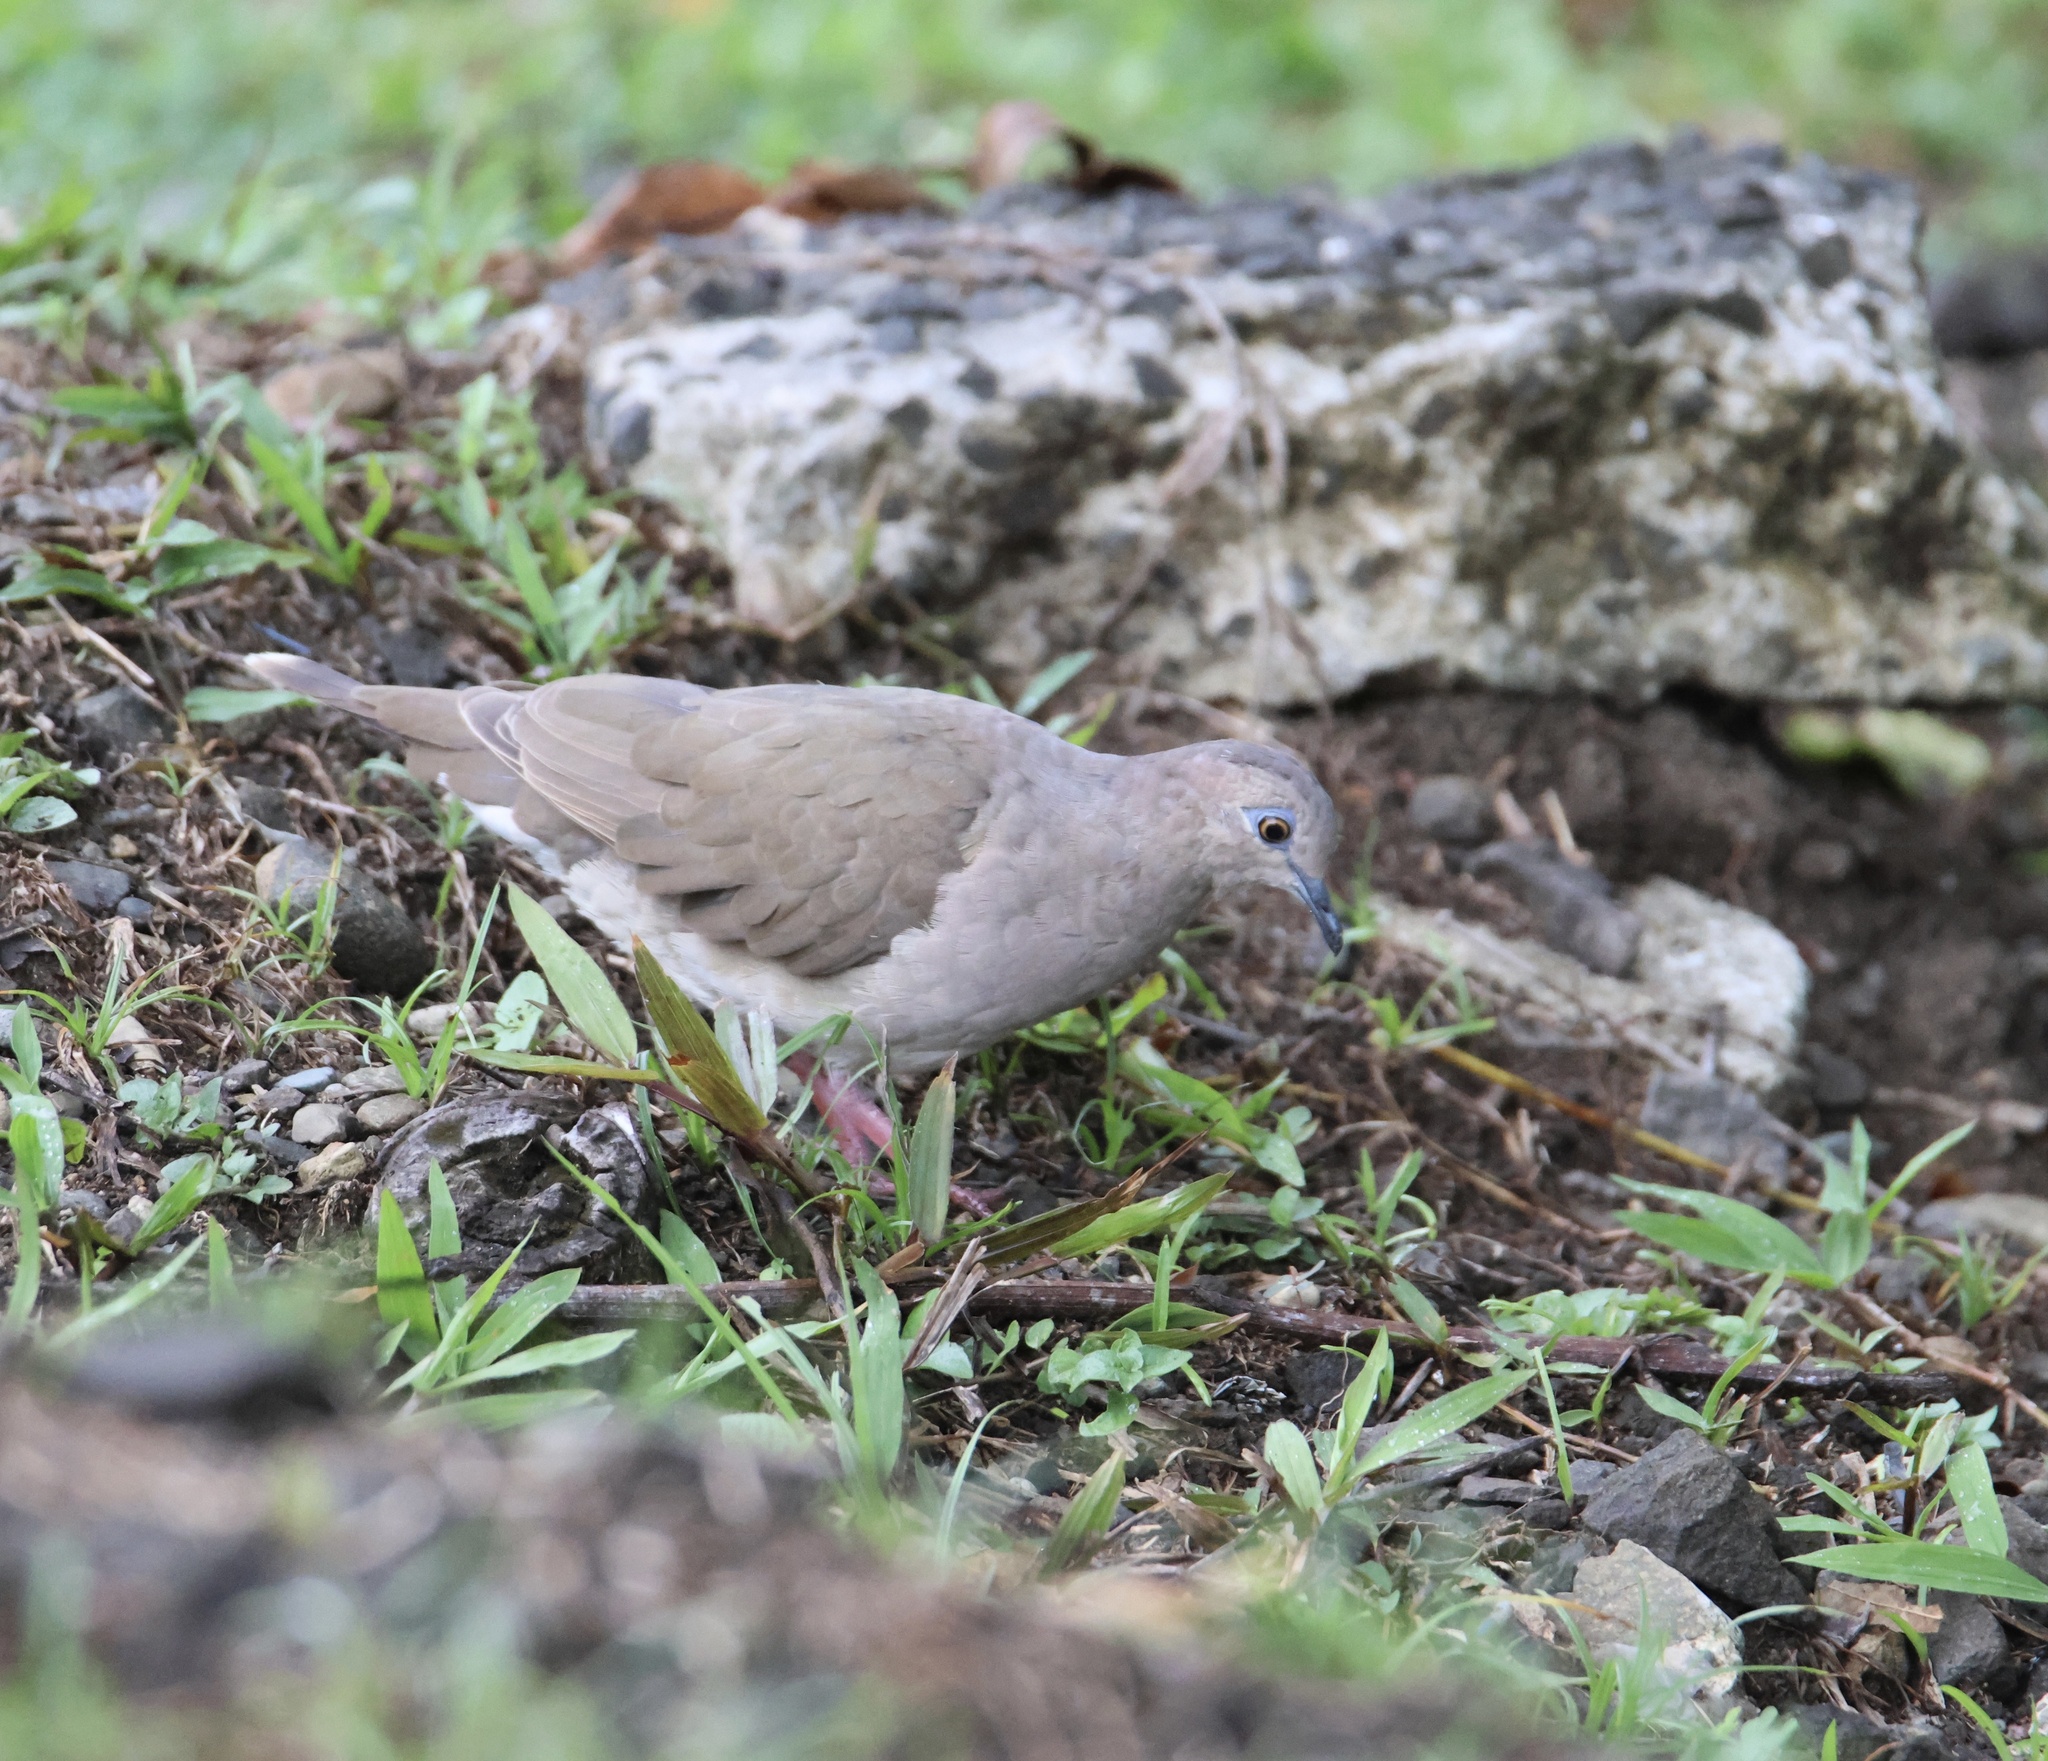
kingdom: Animalia
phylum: Chordata
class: Aves
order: Columbiformes
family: Columbidae
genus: Leptotila
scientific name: Leptotila verreauxi
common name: White-tipped dove
